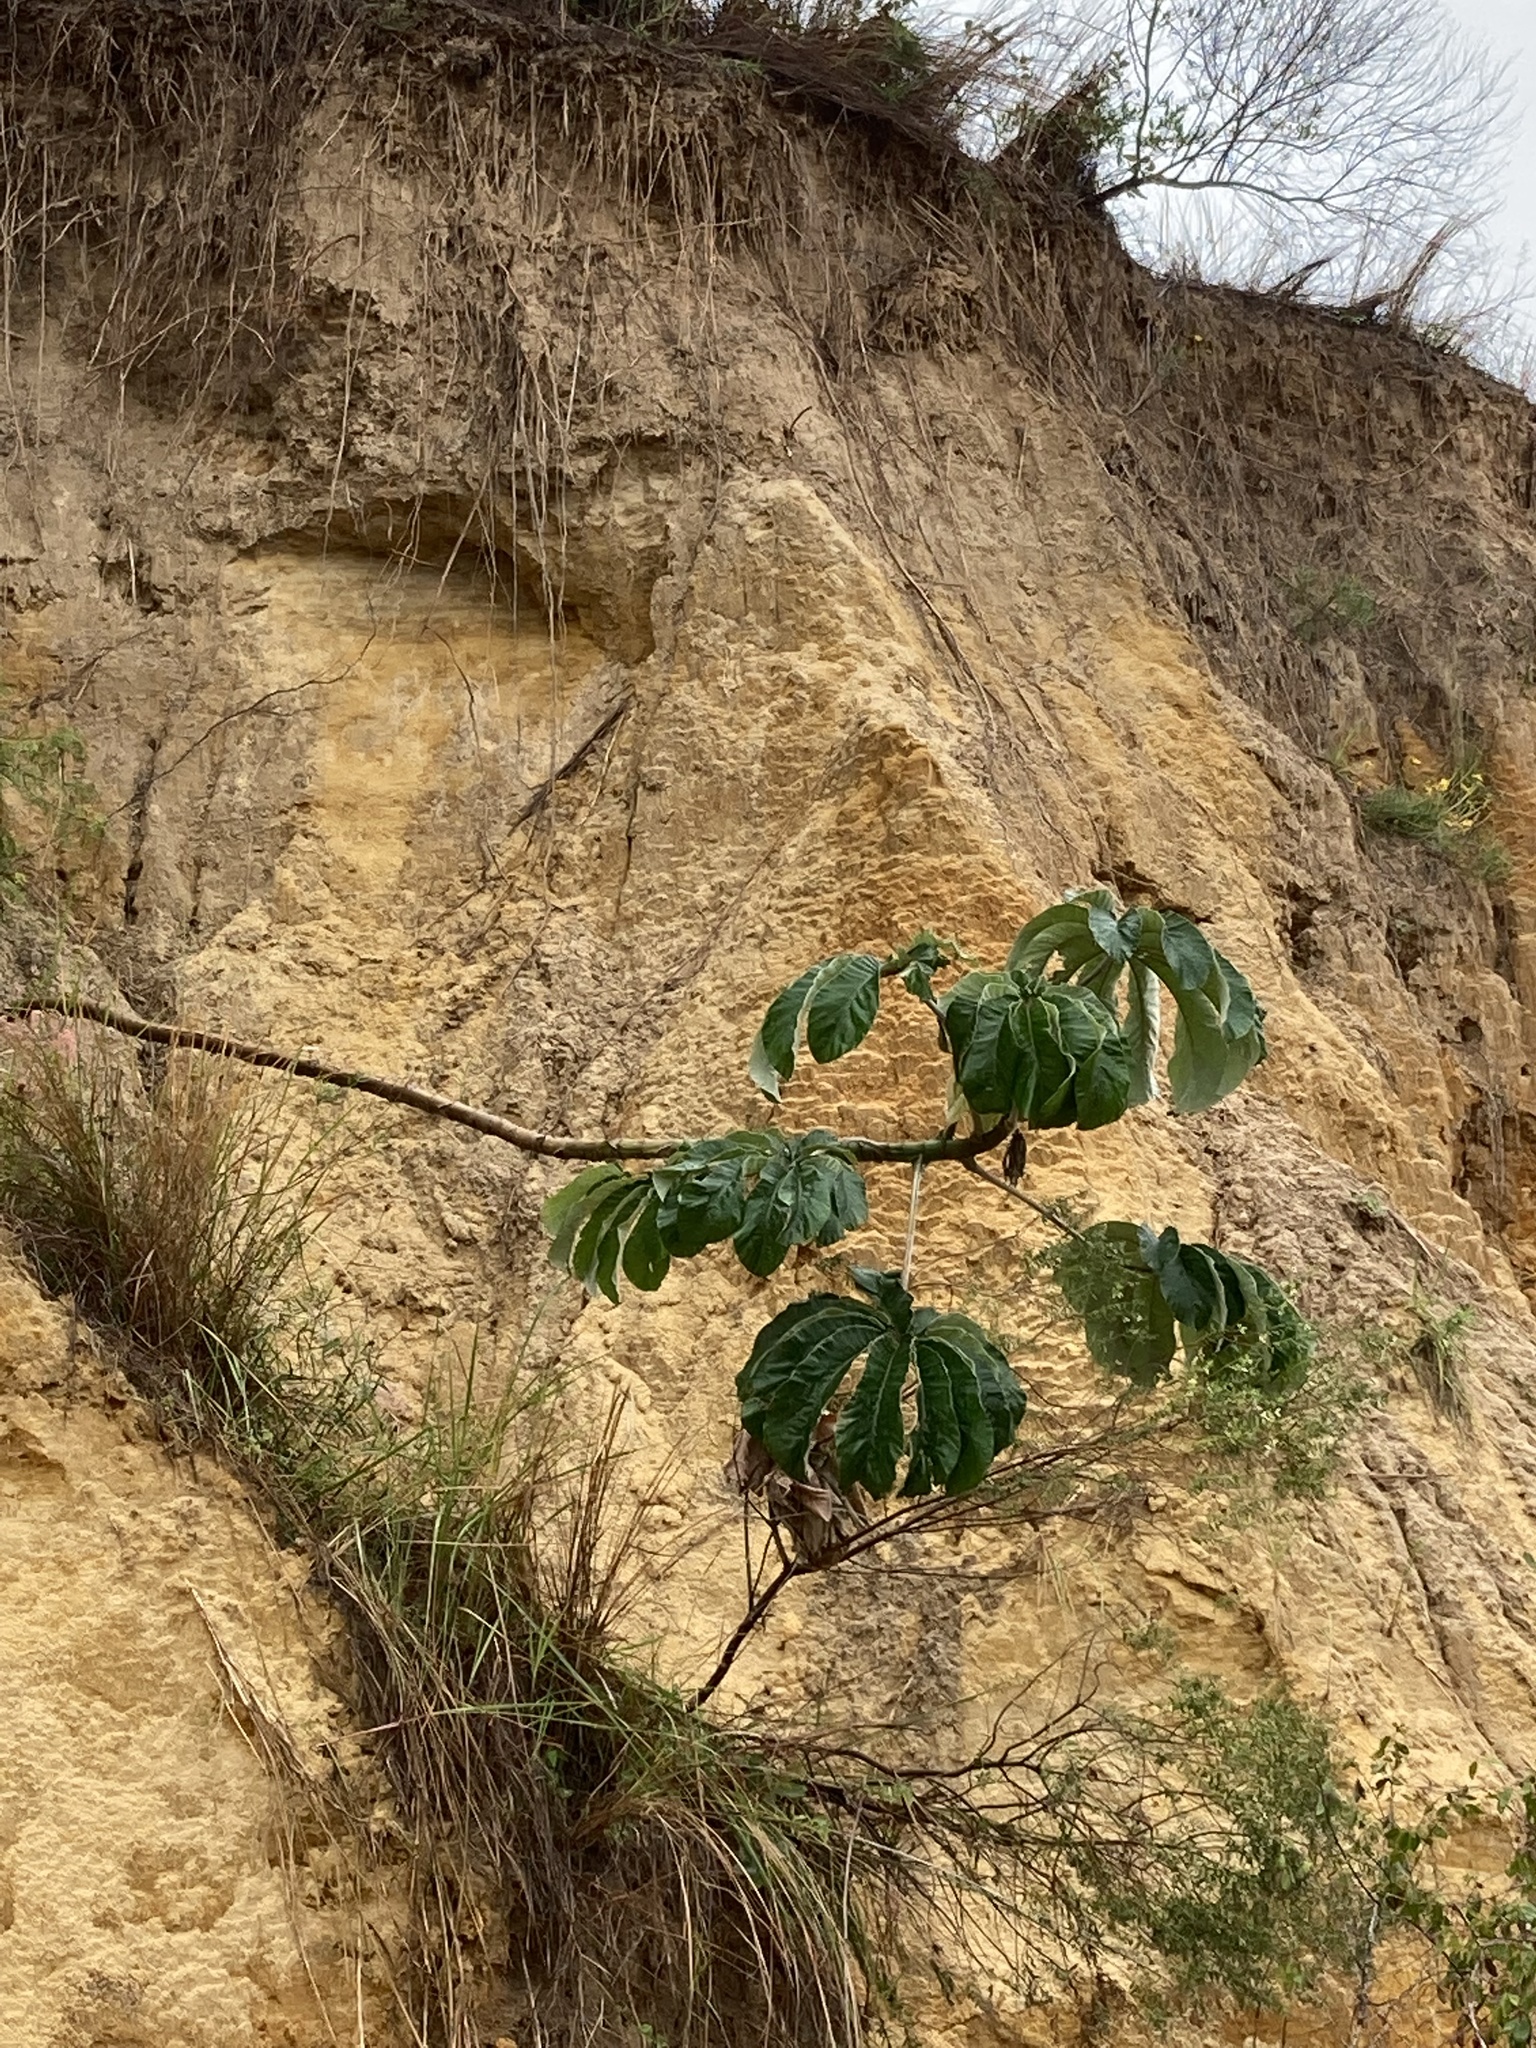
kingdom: Plantae
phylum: Tracheophyta
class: Magnoliopsida
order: Rosales
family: Urticaceae
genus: Cecropia
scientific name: Cecropia pachystachya
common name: Ambay pumpwood
